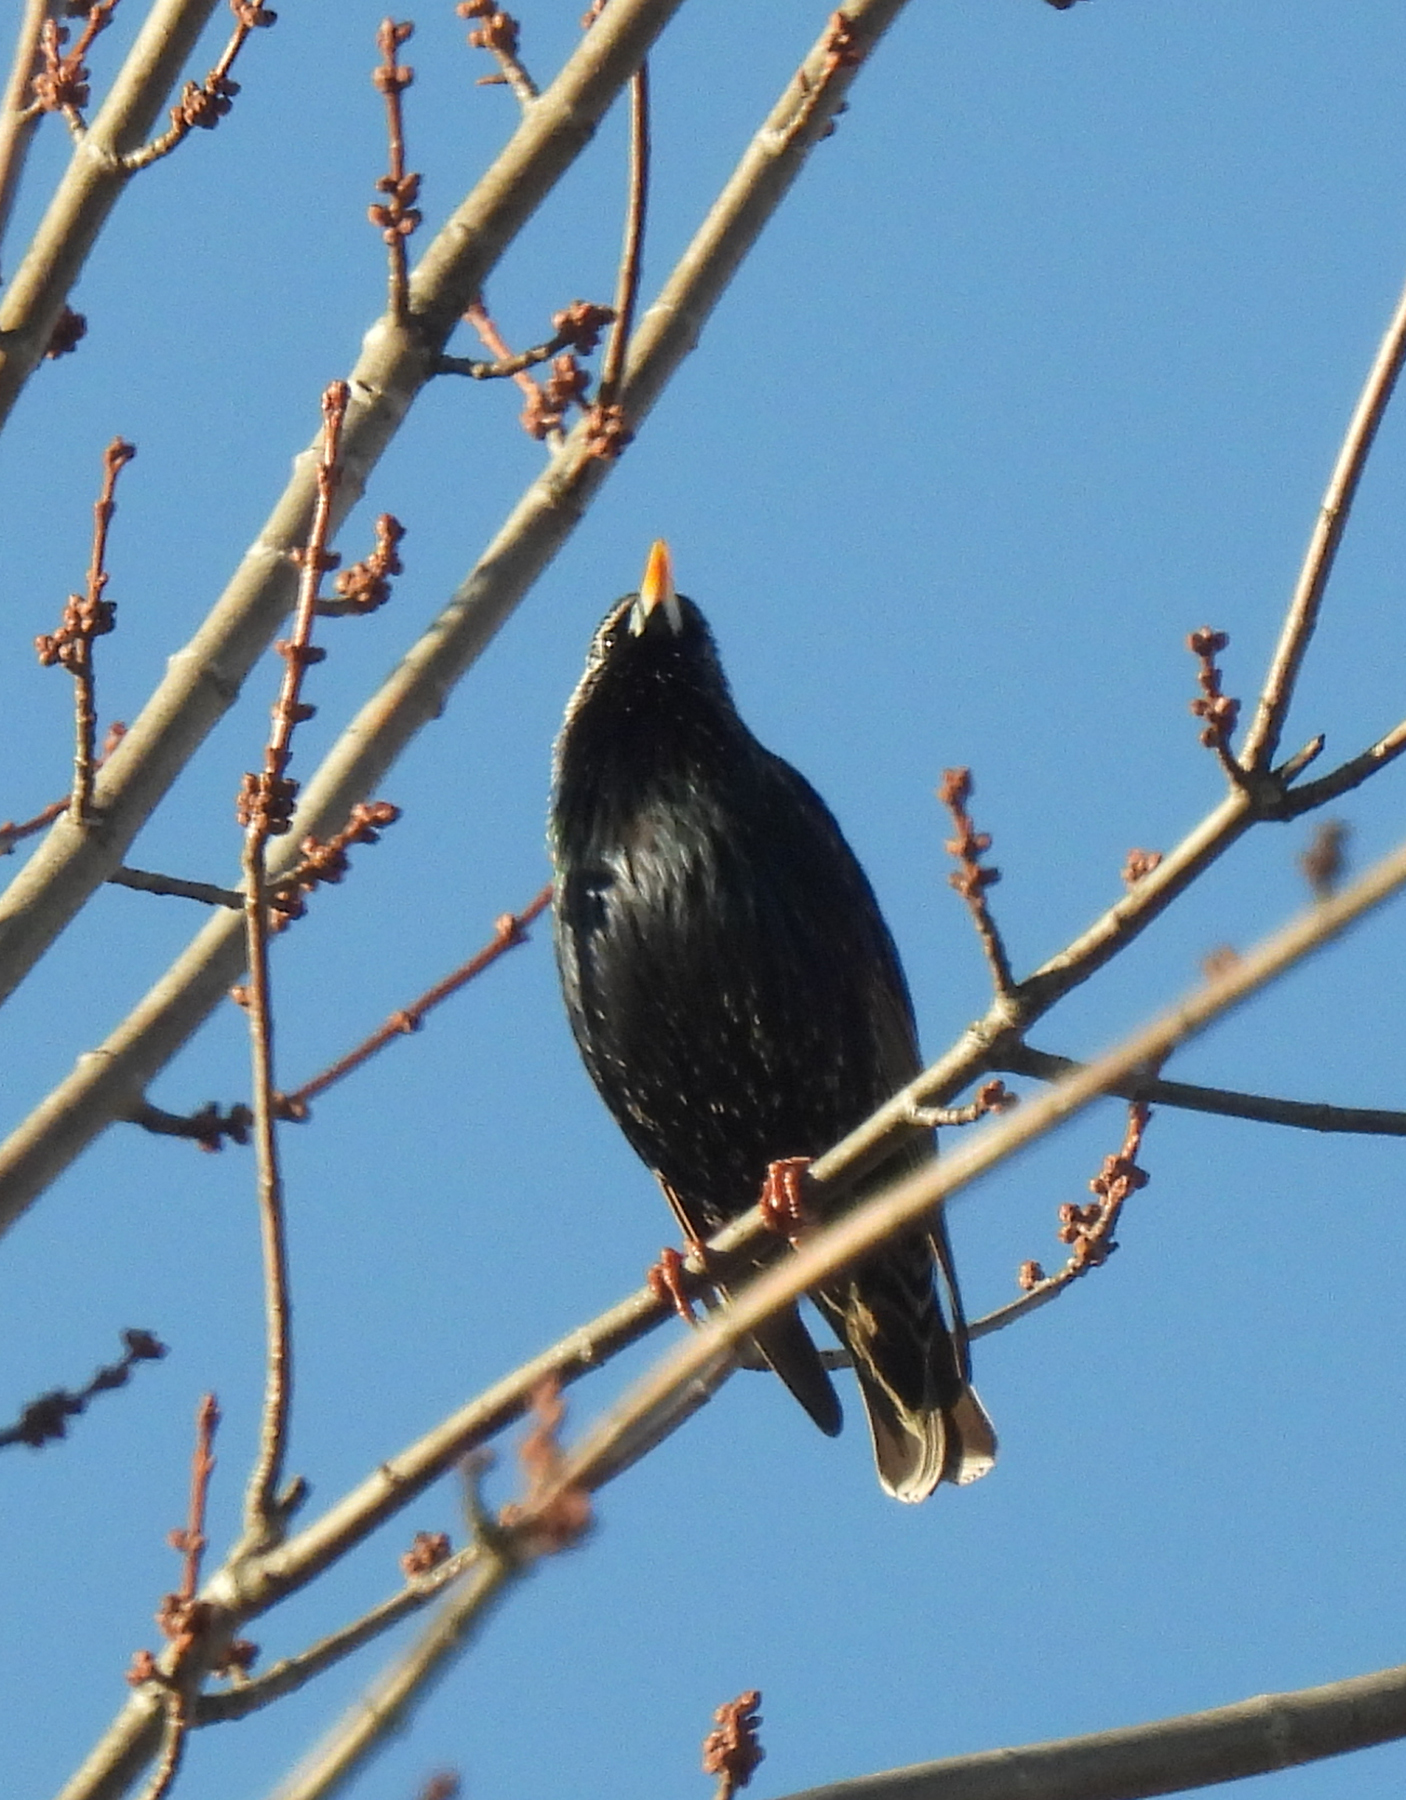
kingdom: Animalia
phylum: Chordata
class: Aves
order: Passeriformes
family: Sturnidae
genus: Sturnus
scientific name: Sturnus vulgaris
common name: Common starling
